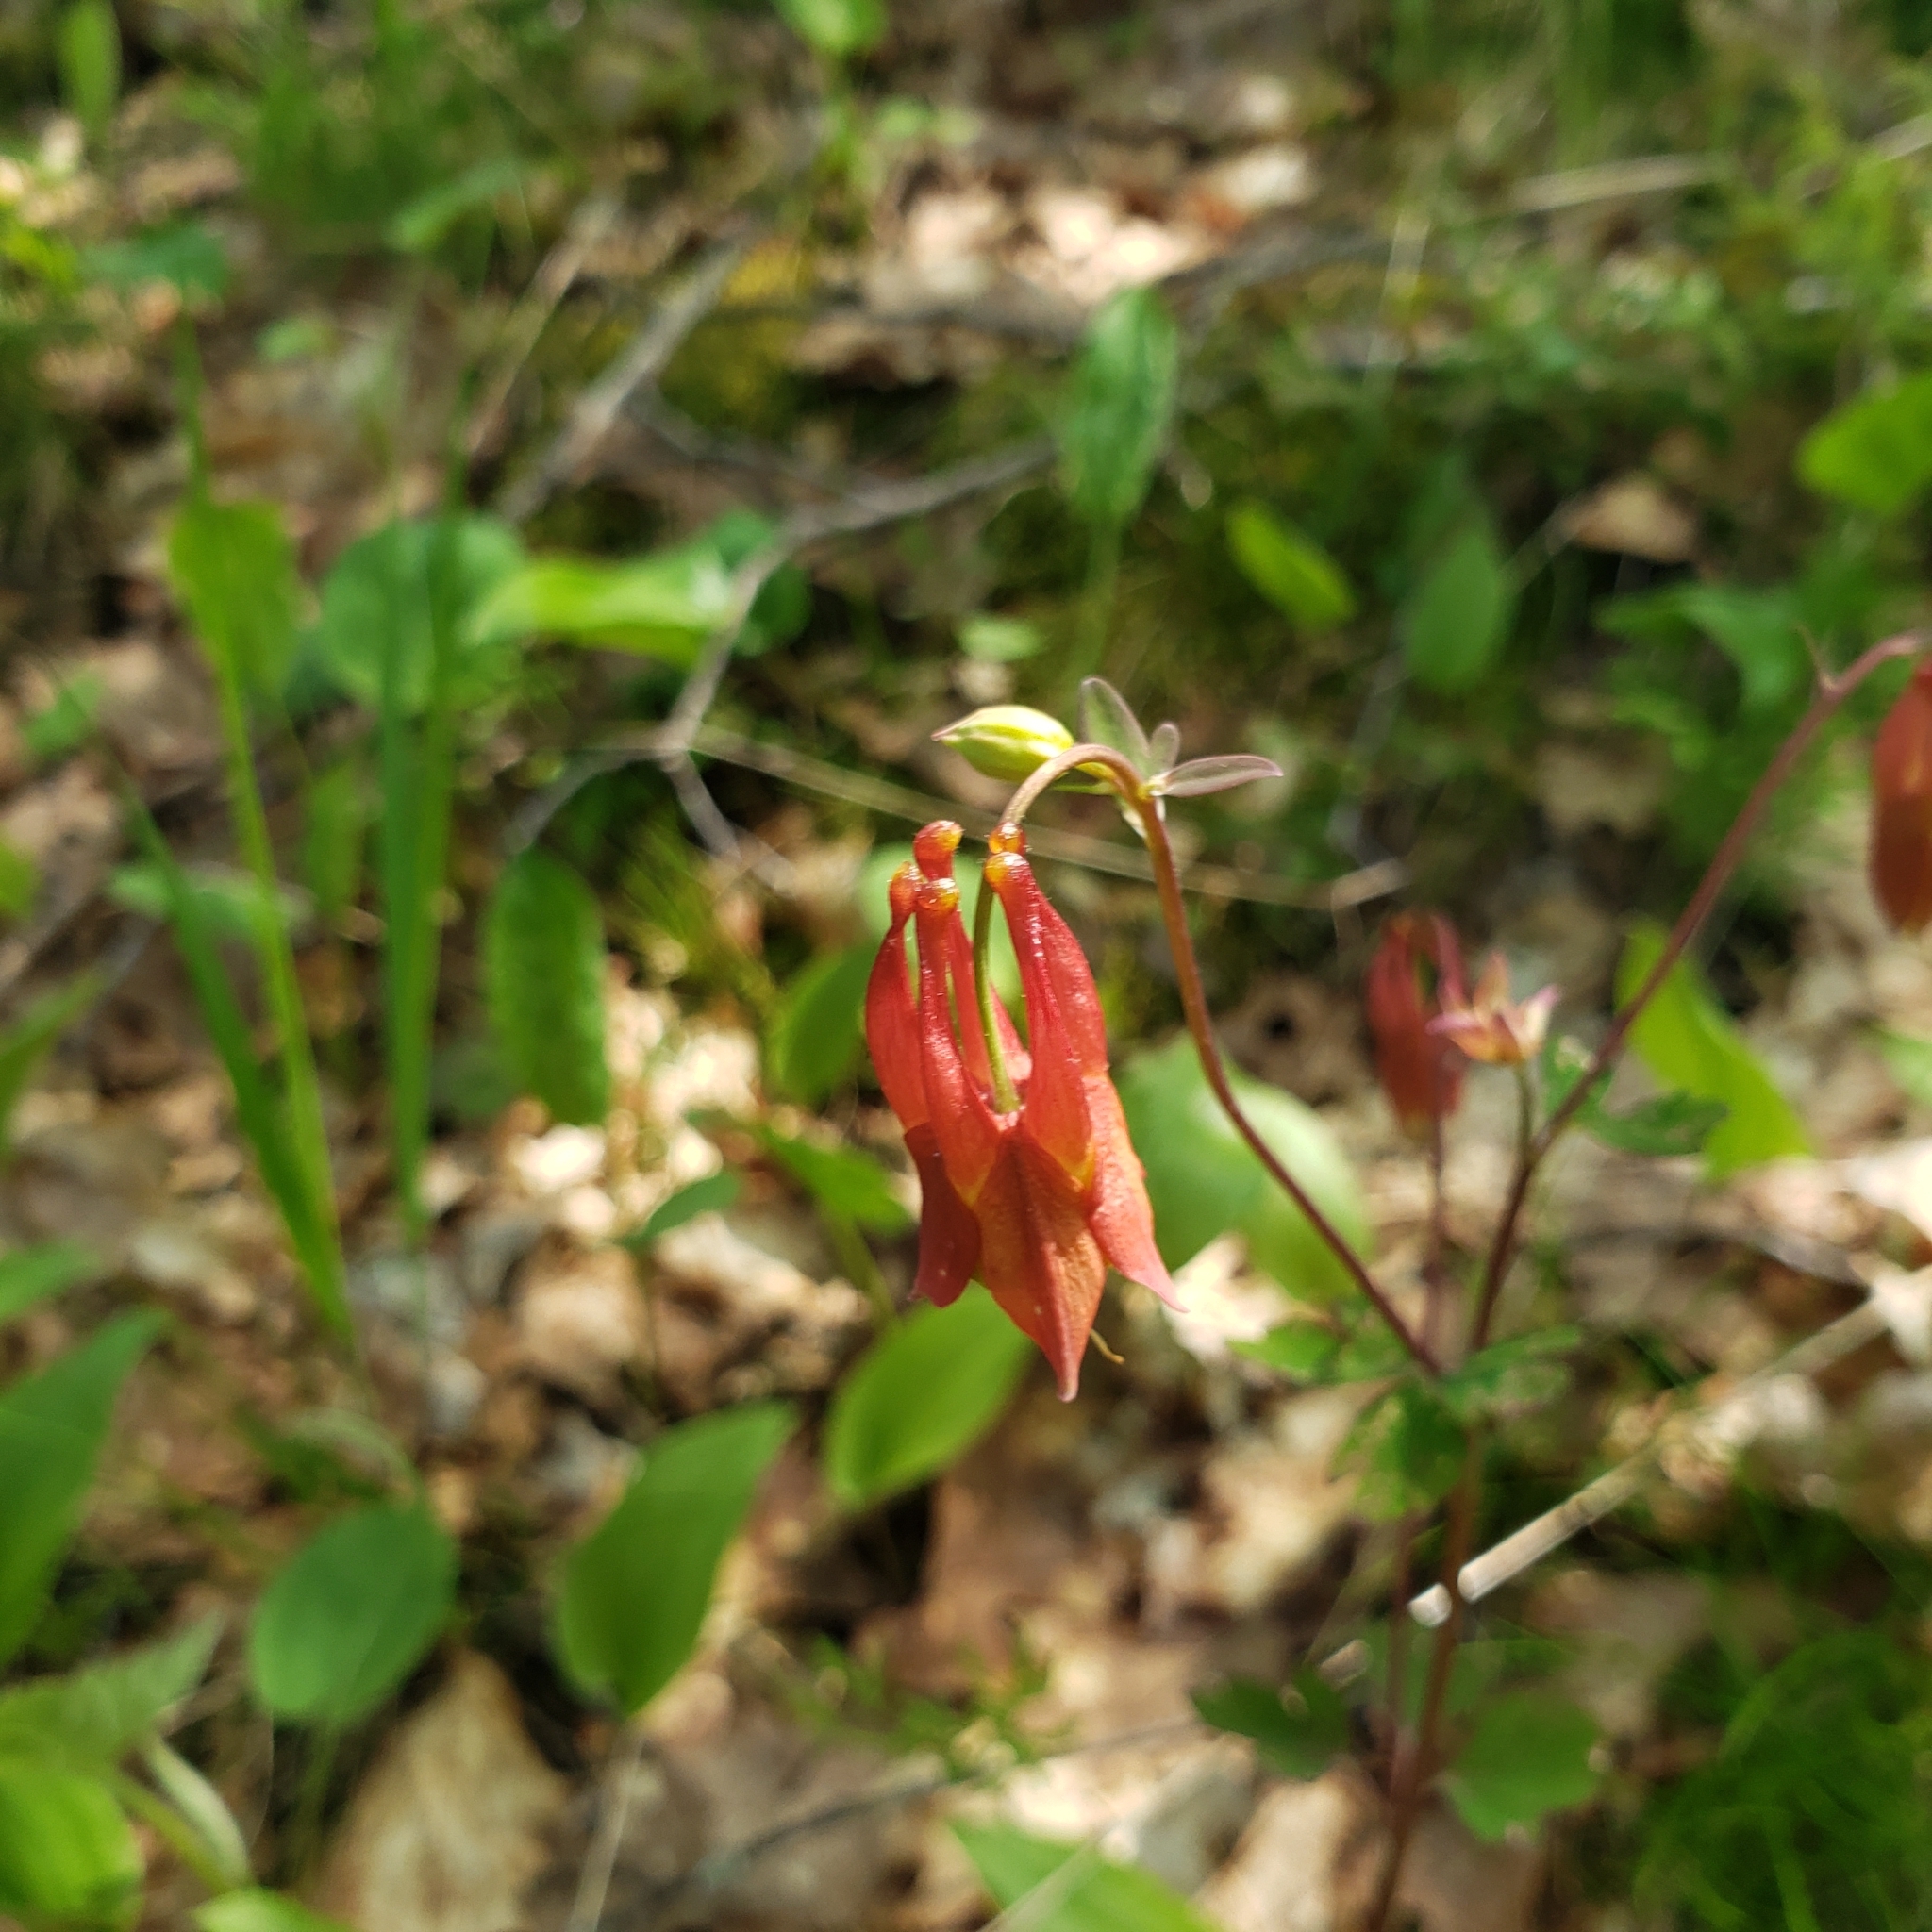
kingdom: Plantae
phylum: Tracheophyta
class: Magnoliopsida
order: Ranunculales
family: Ranunculaceae
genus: Aquilegia
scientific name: Aquilegia canadensis
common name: American columbine
